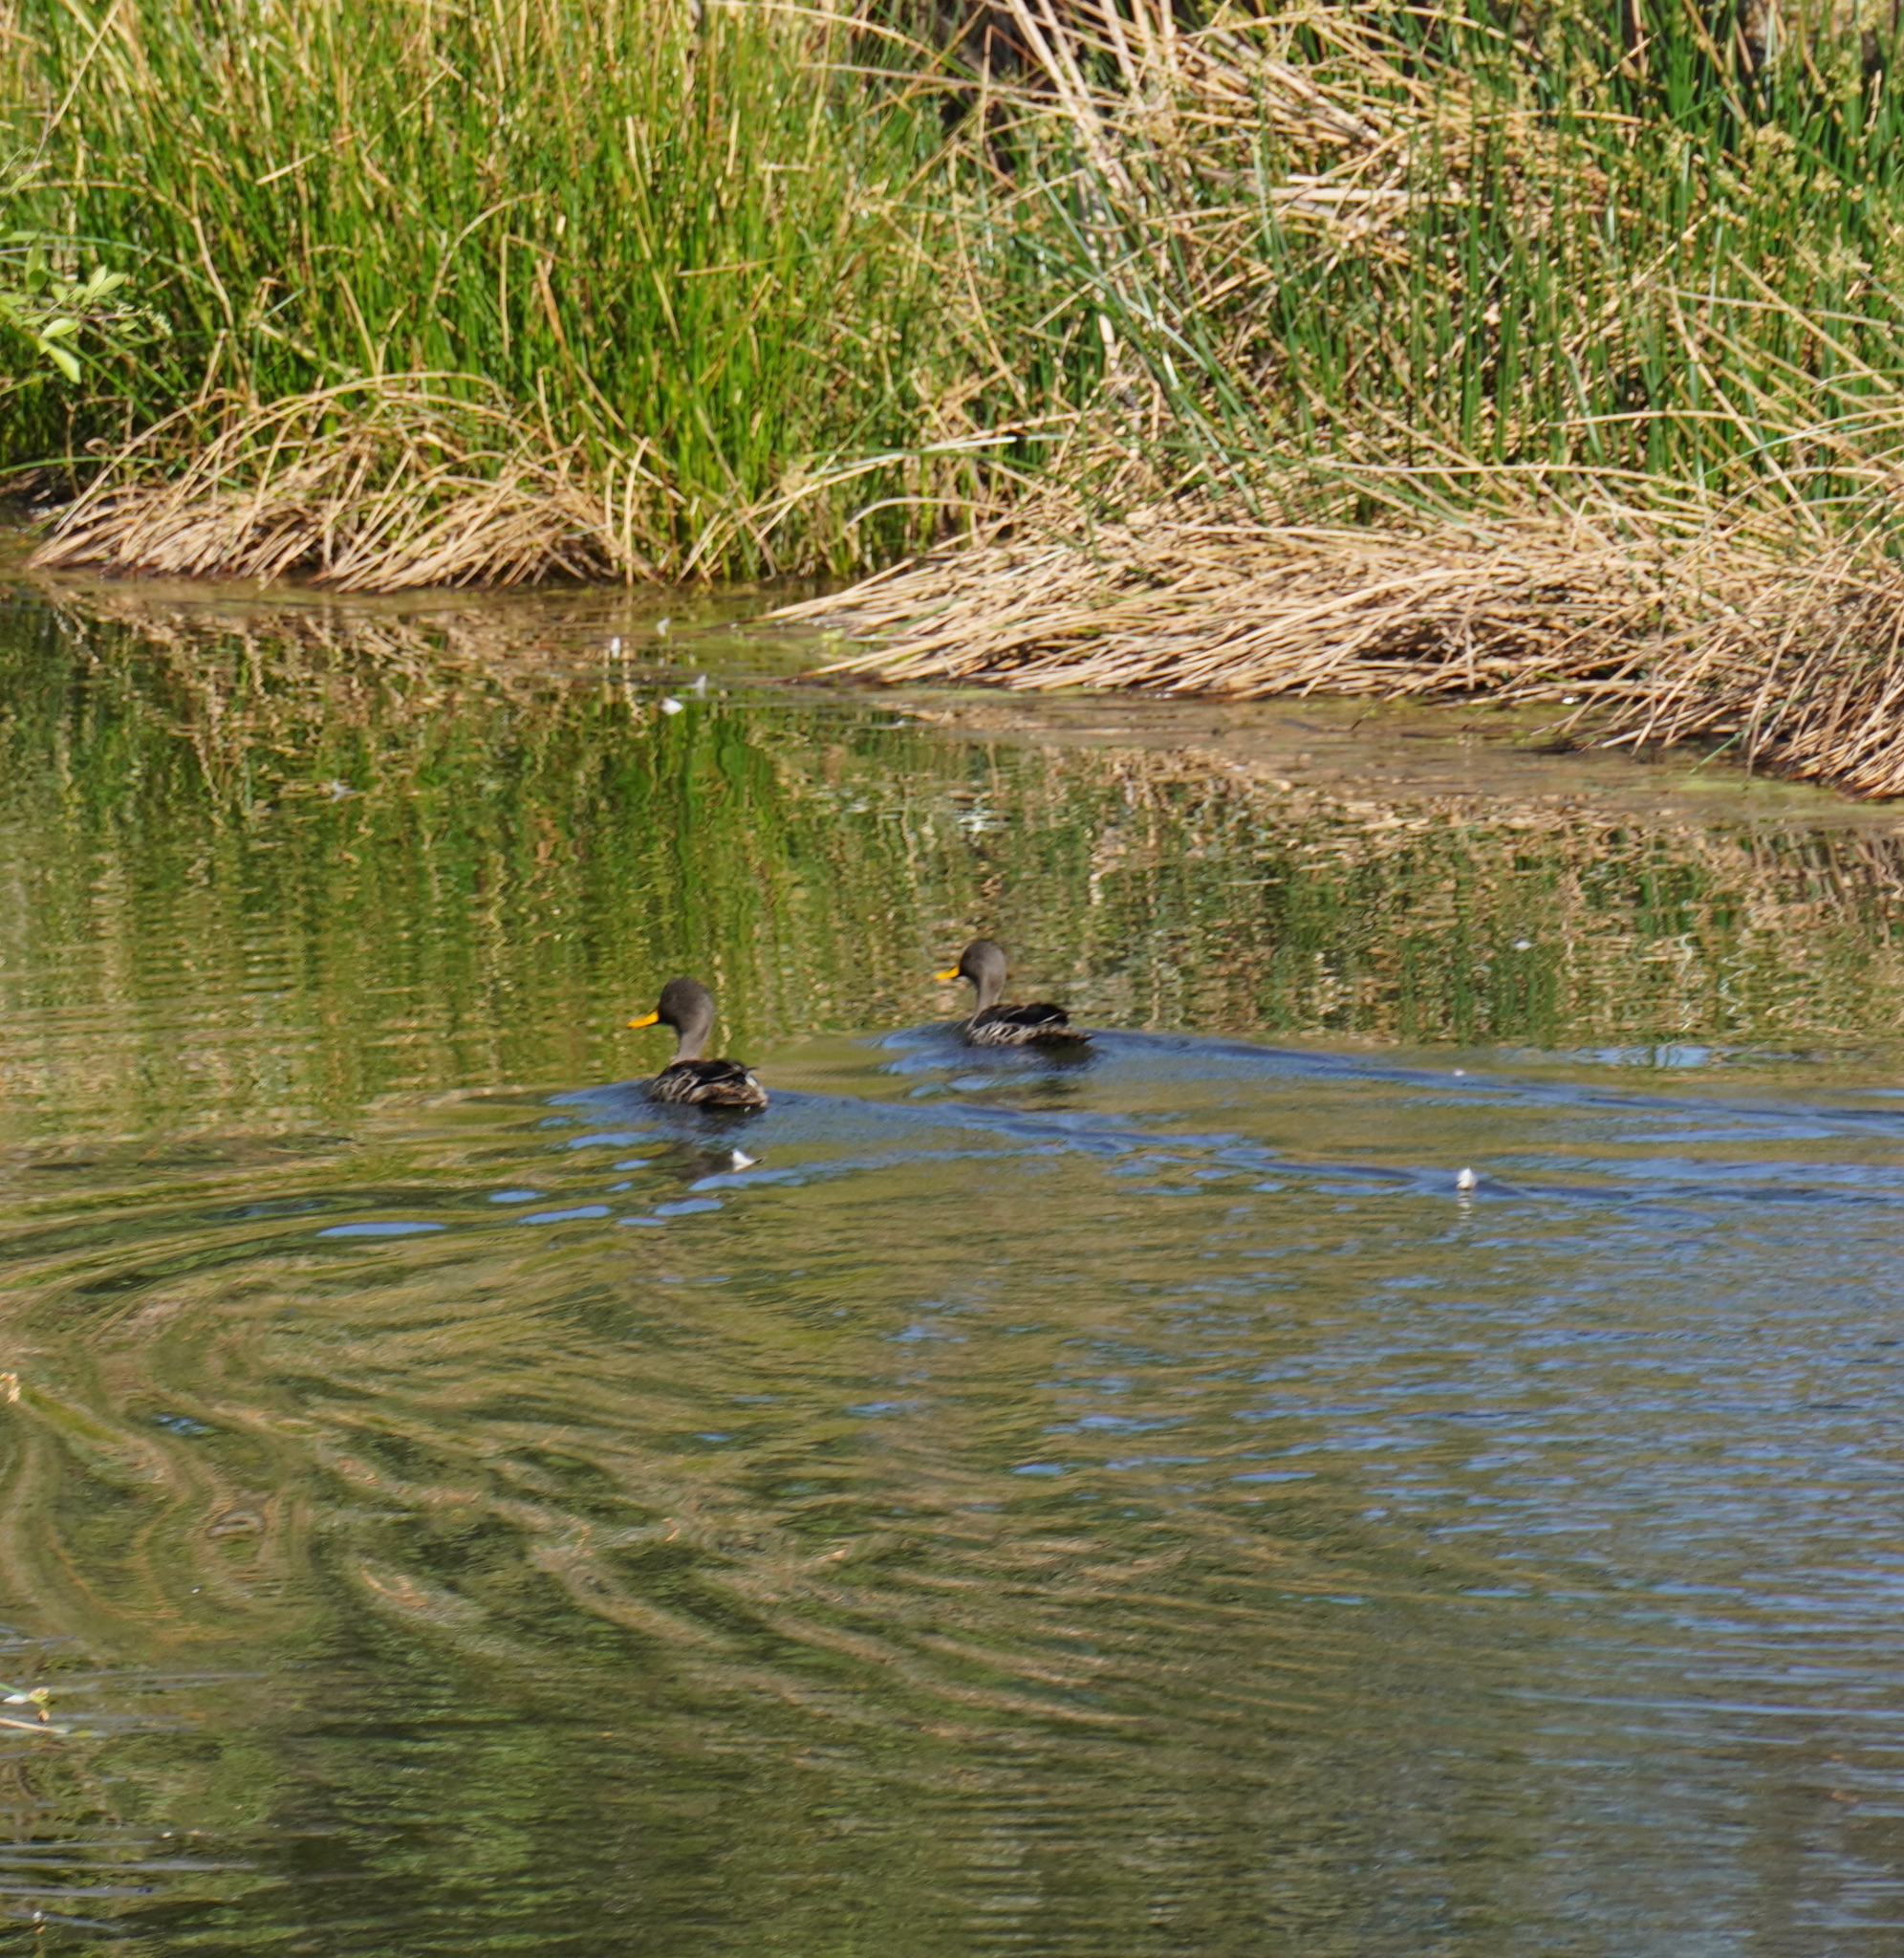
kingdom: Animalia
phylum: Chordata
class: Aves
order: Anseriformes
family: Anatidae
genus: Anas
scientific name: Anas undulata
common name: Yellow-billed duck
